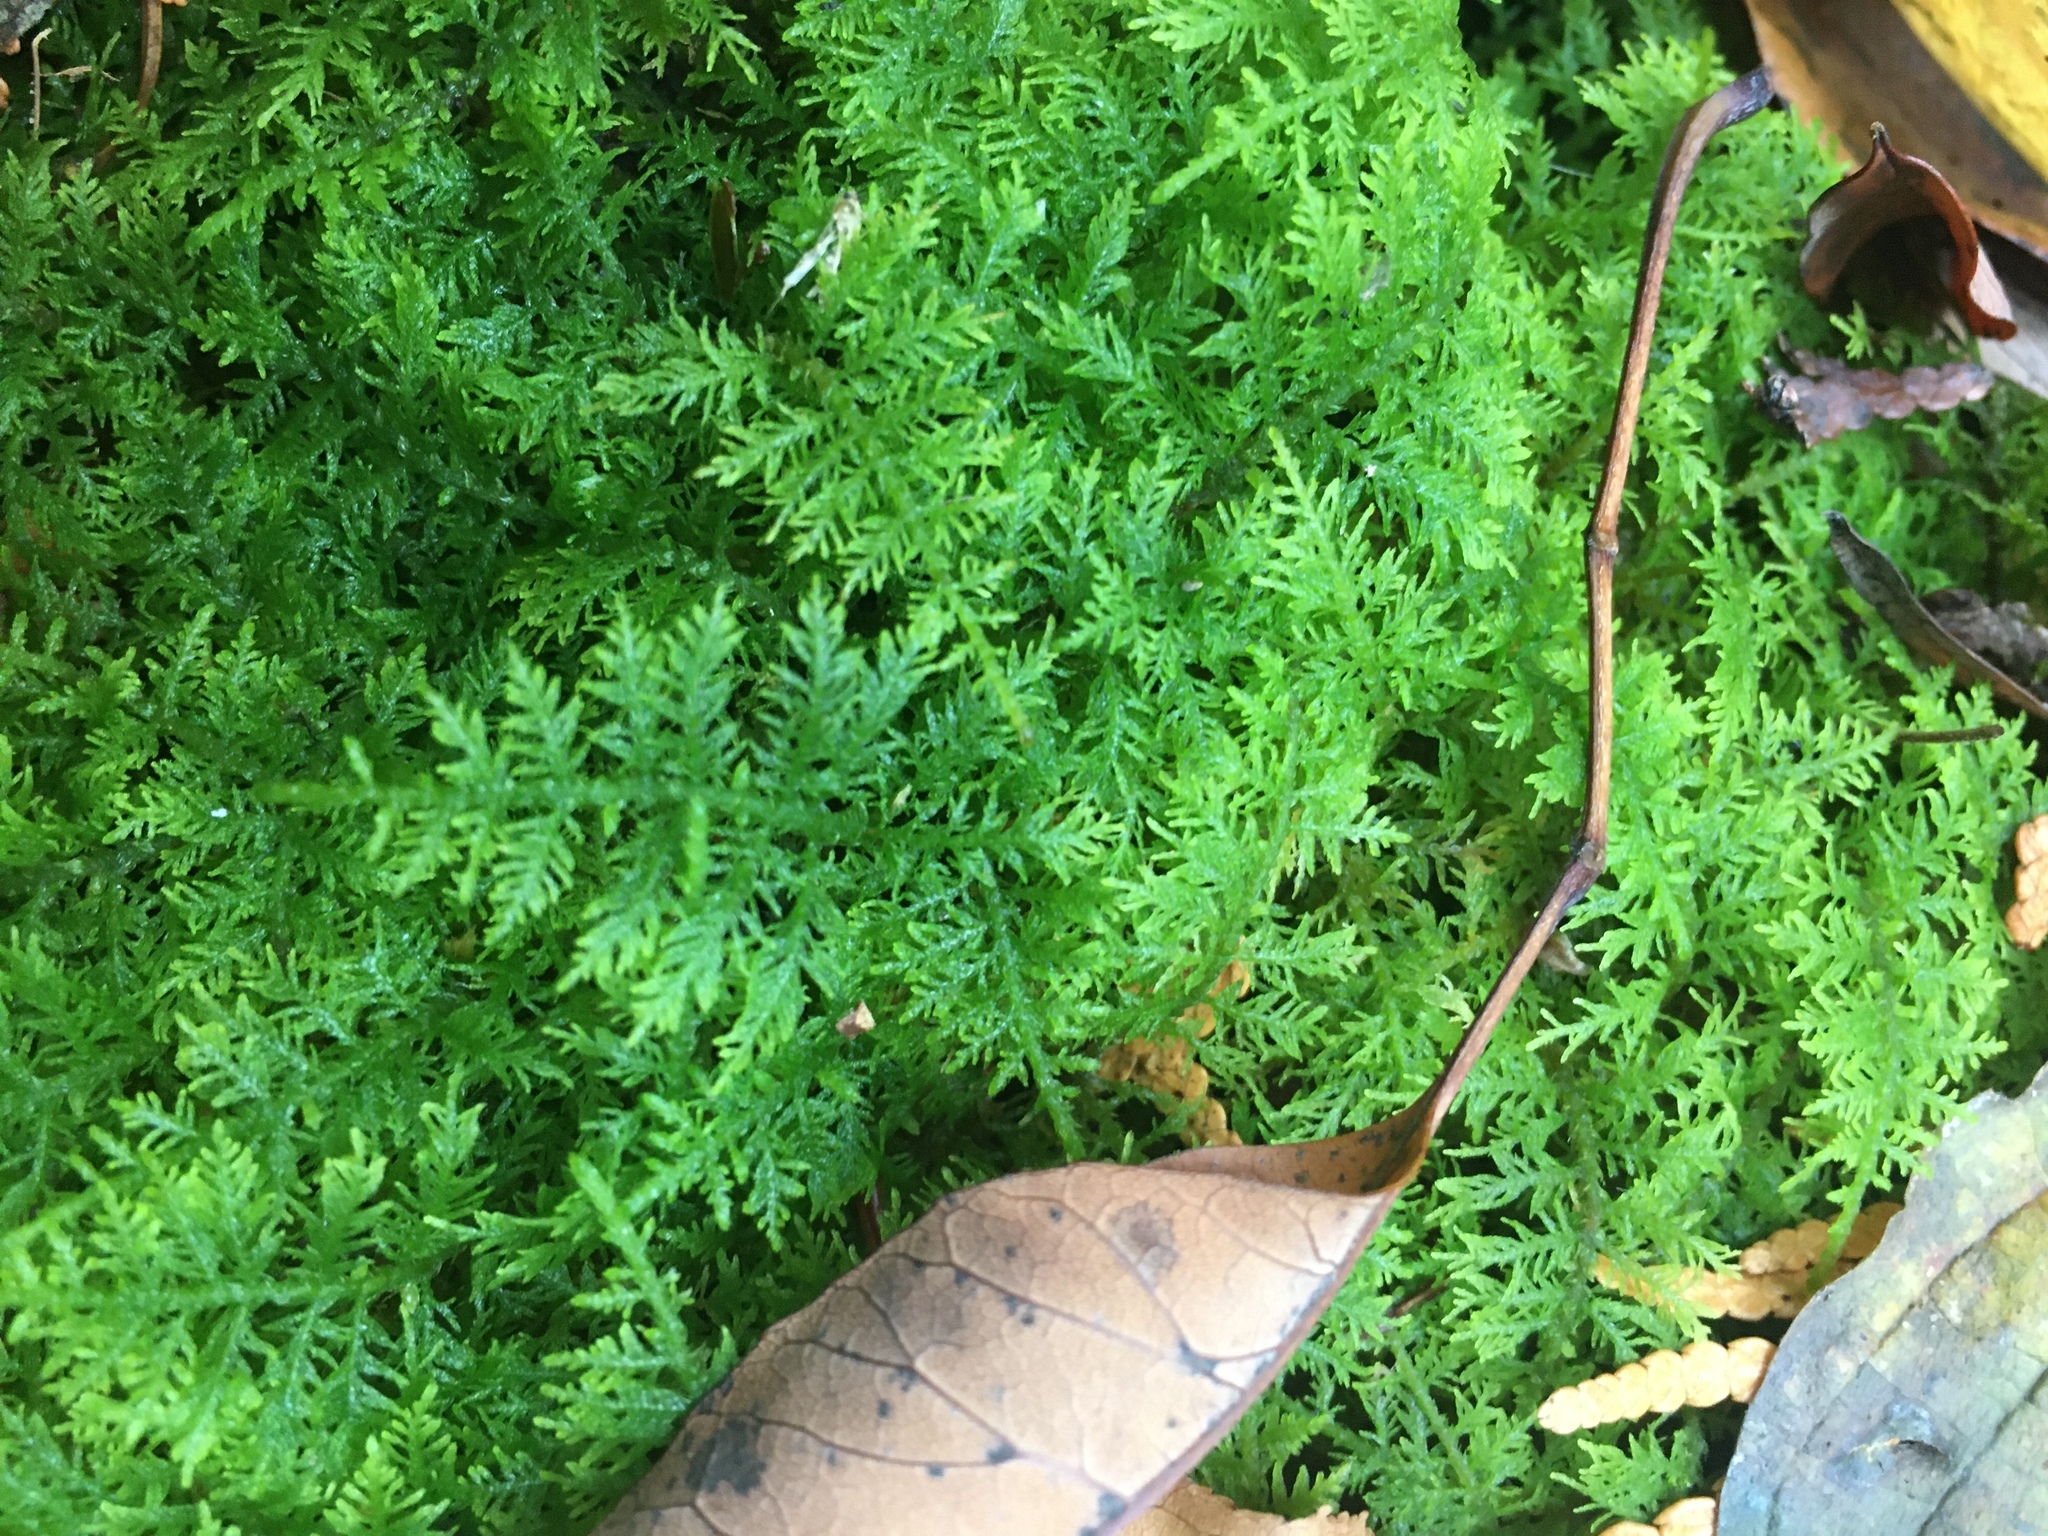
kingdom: Plantae
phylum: Bryophyta
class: Bryopsida
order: Hypnales
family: Thuidiaceae
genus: Thuidium
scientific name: Thuidium delicatulum
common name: Delicate fern moss
